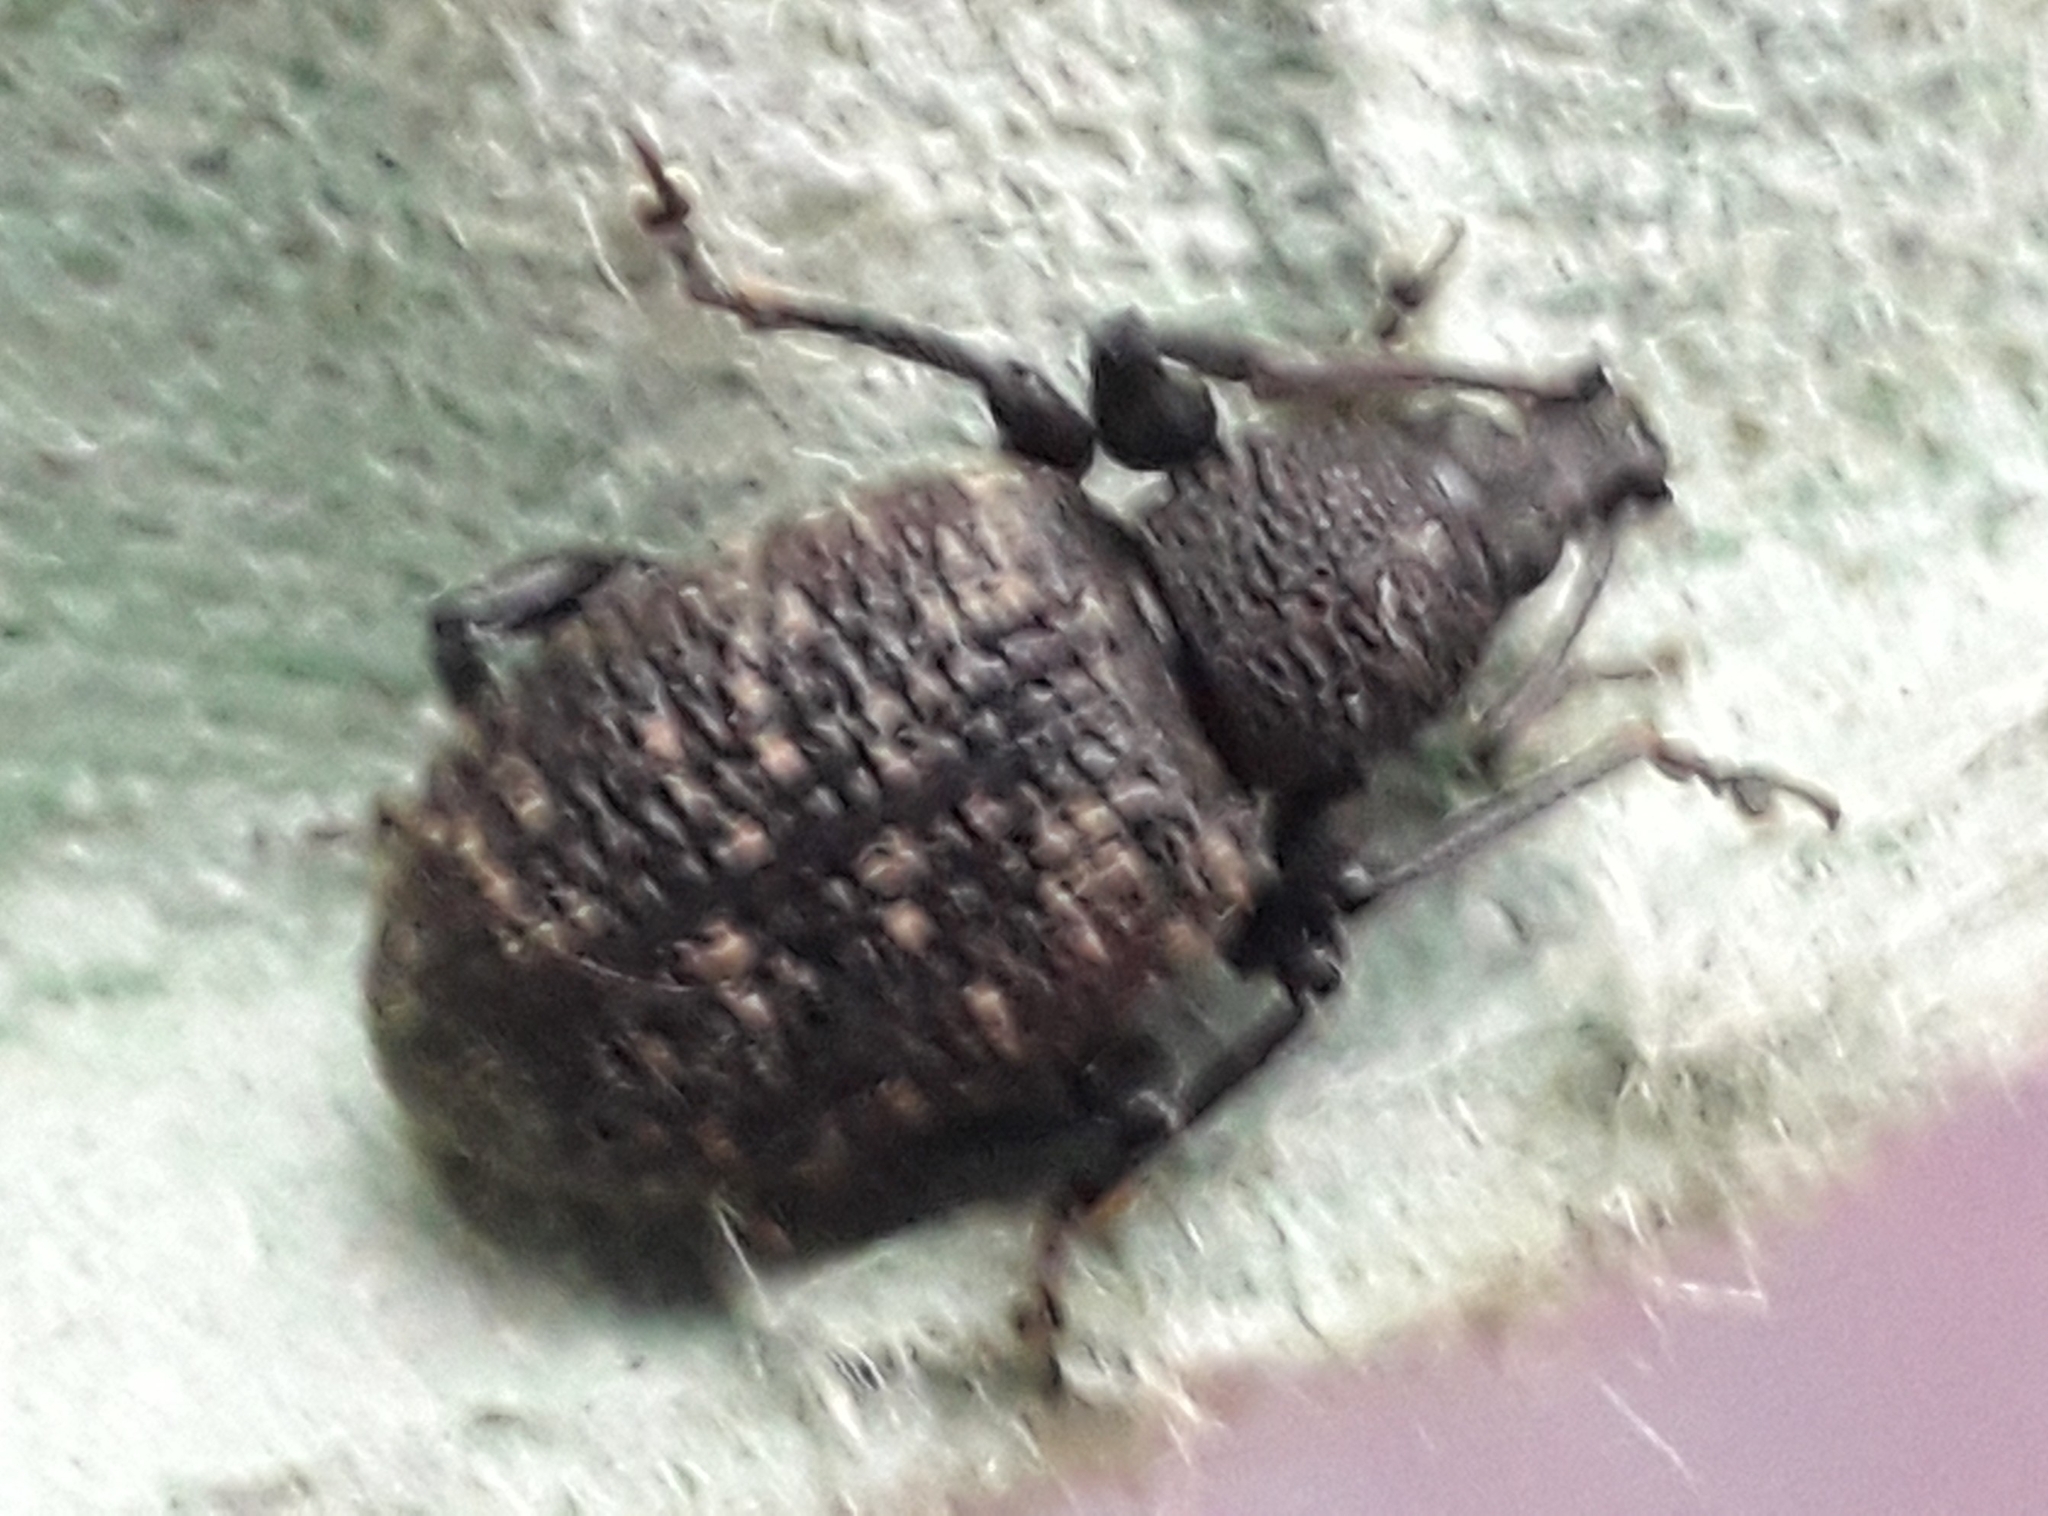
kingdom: Animalia
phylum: Arthropoda
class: Insecta
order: Coleoptera
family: Curculionidae
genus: Otiorhynchus
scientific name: Otiorhynchus sulcatus
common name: Black vine weevil
